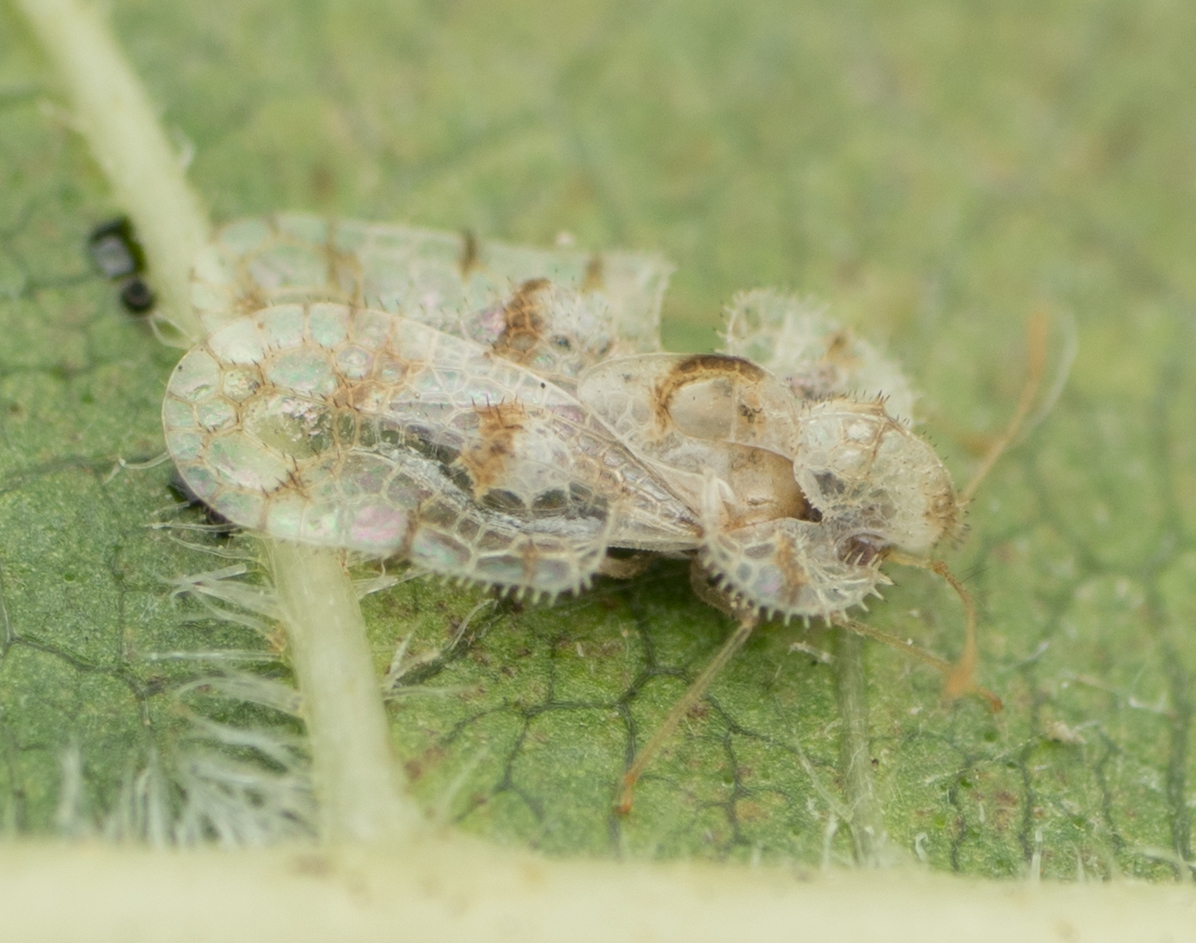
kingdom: Animalia
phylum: Arthropoda
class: Insecta
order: Hemiptera
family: Tingidae
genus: Corythucha
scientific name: Corythucha gossypii
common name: Cotton lace bug
